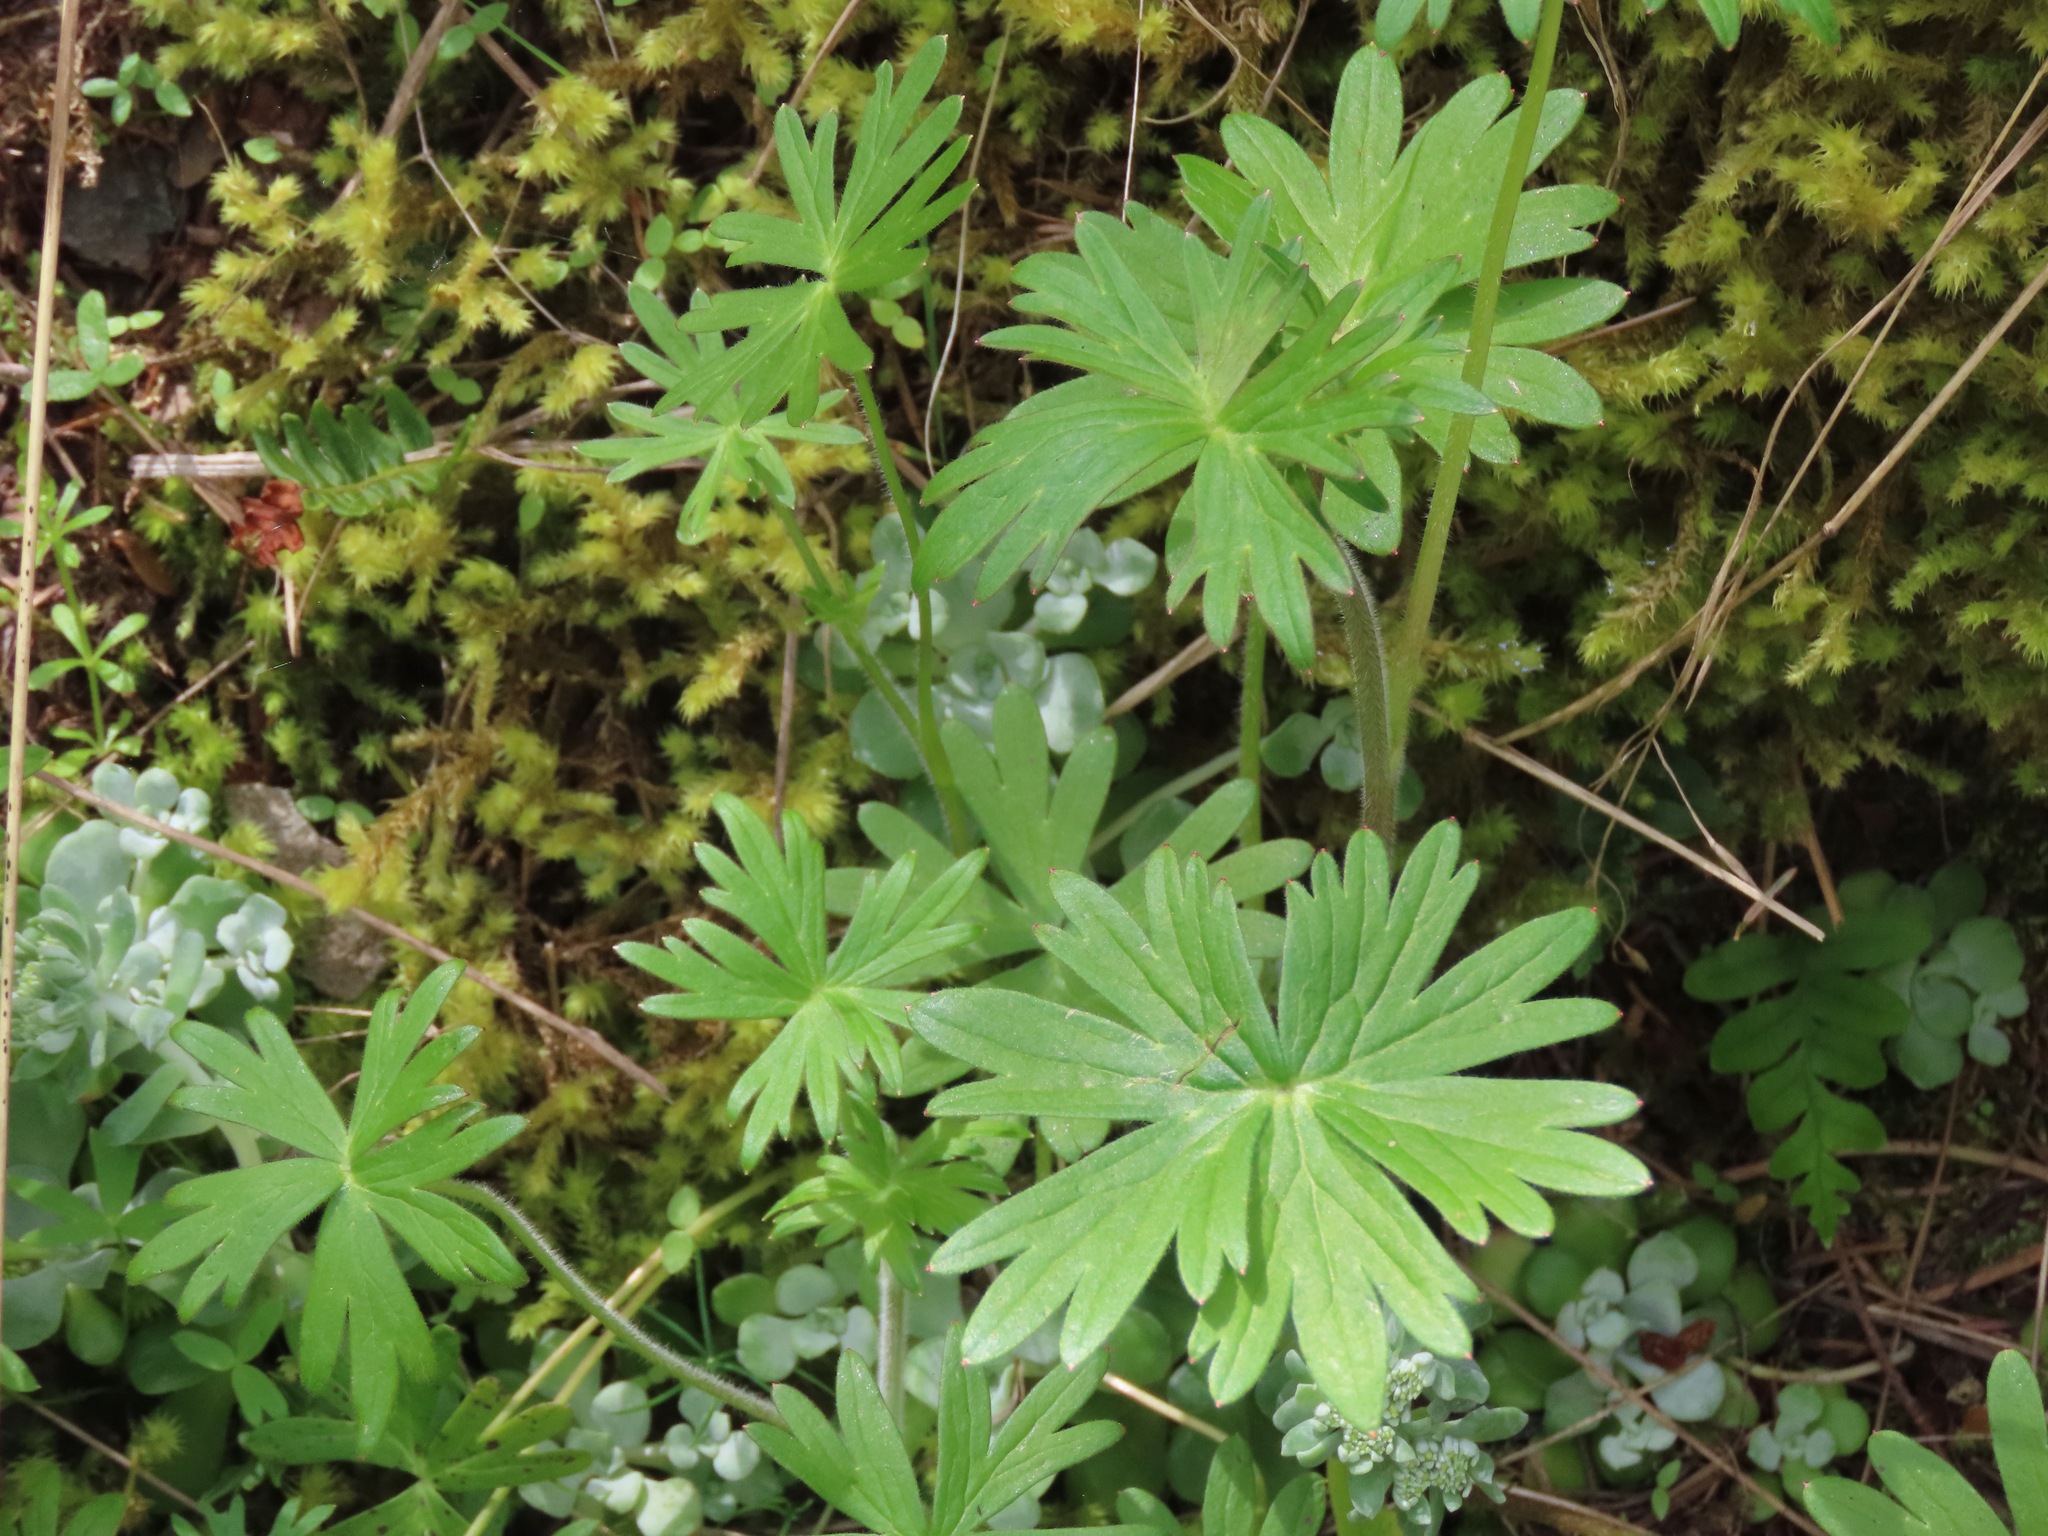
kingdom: Plantae
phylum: Tracheophyta
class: Magnoliopsida
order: Ranunculales
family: Ranunculaceae
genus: Delphinium
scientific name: Delphinium menziesii
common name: Menzies's larkspur
